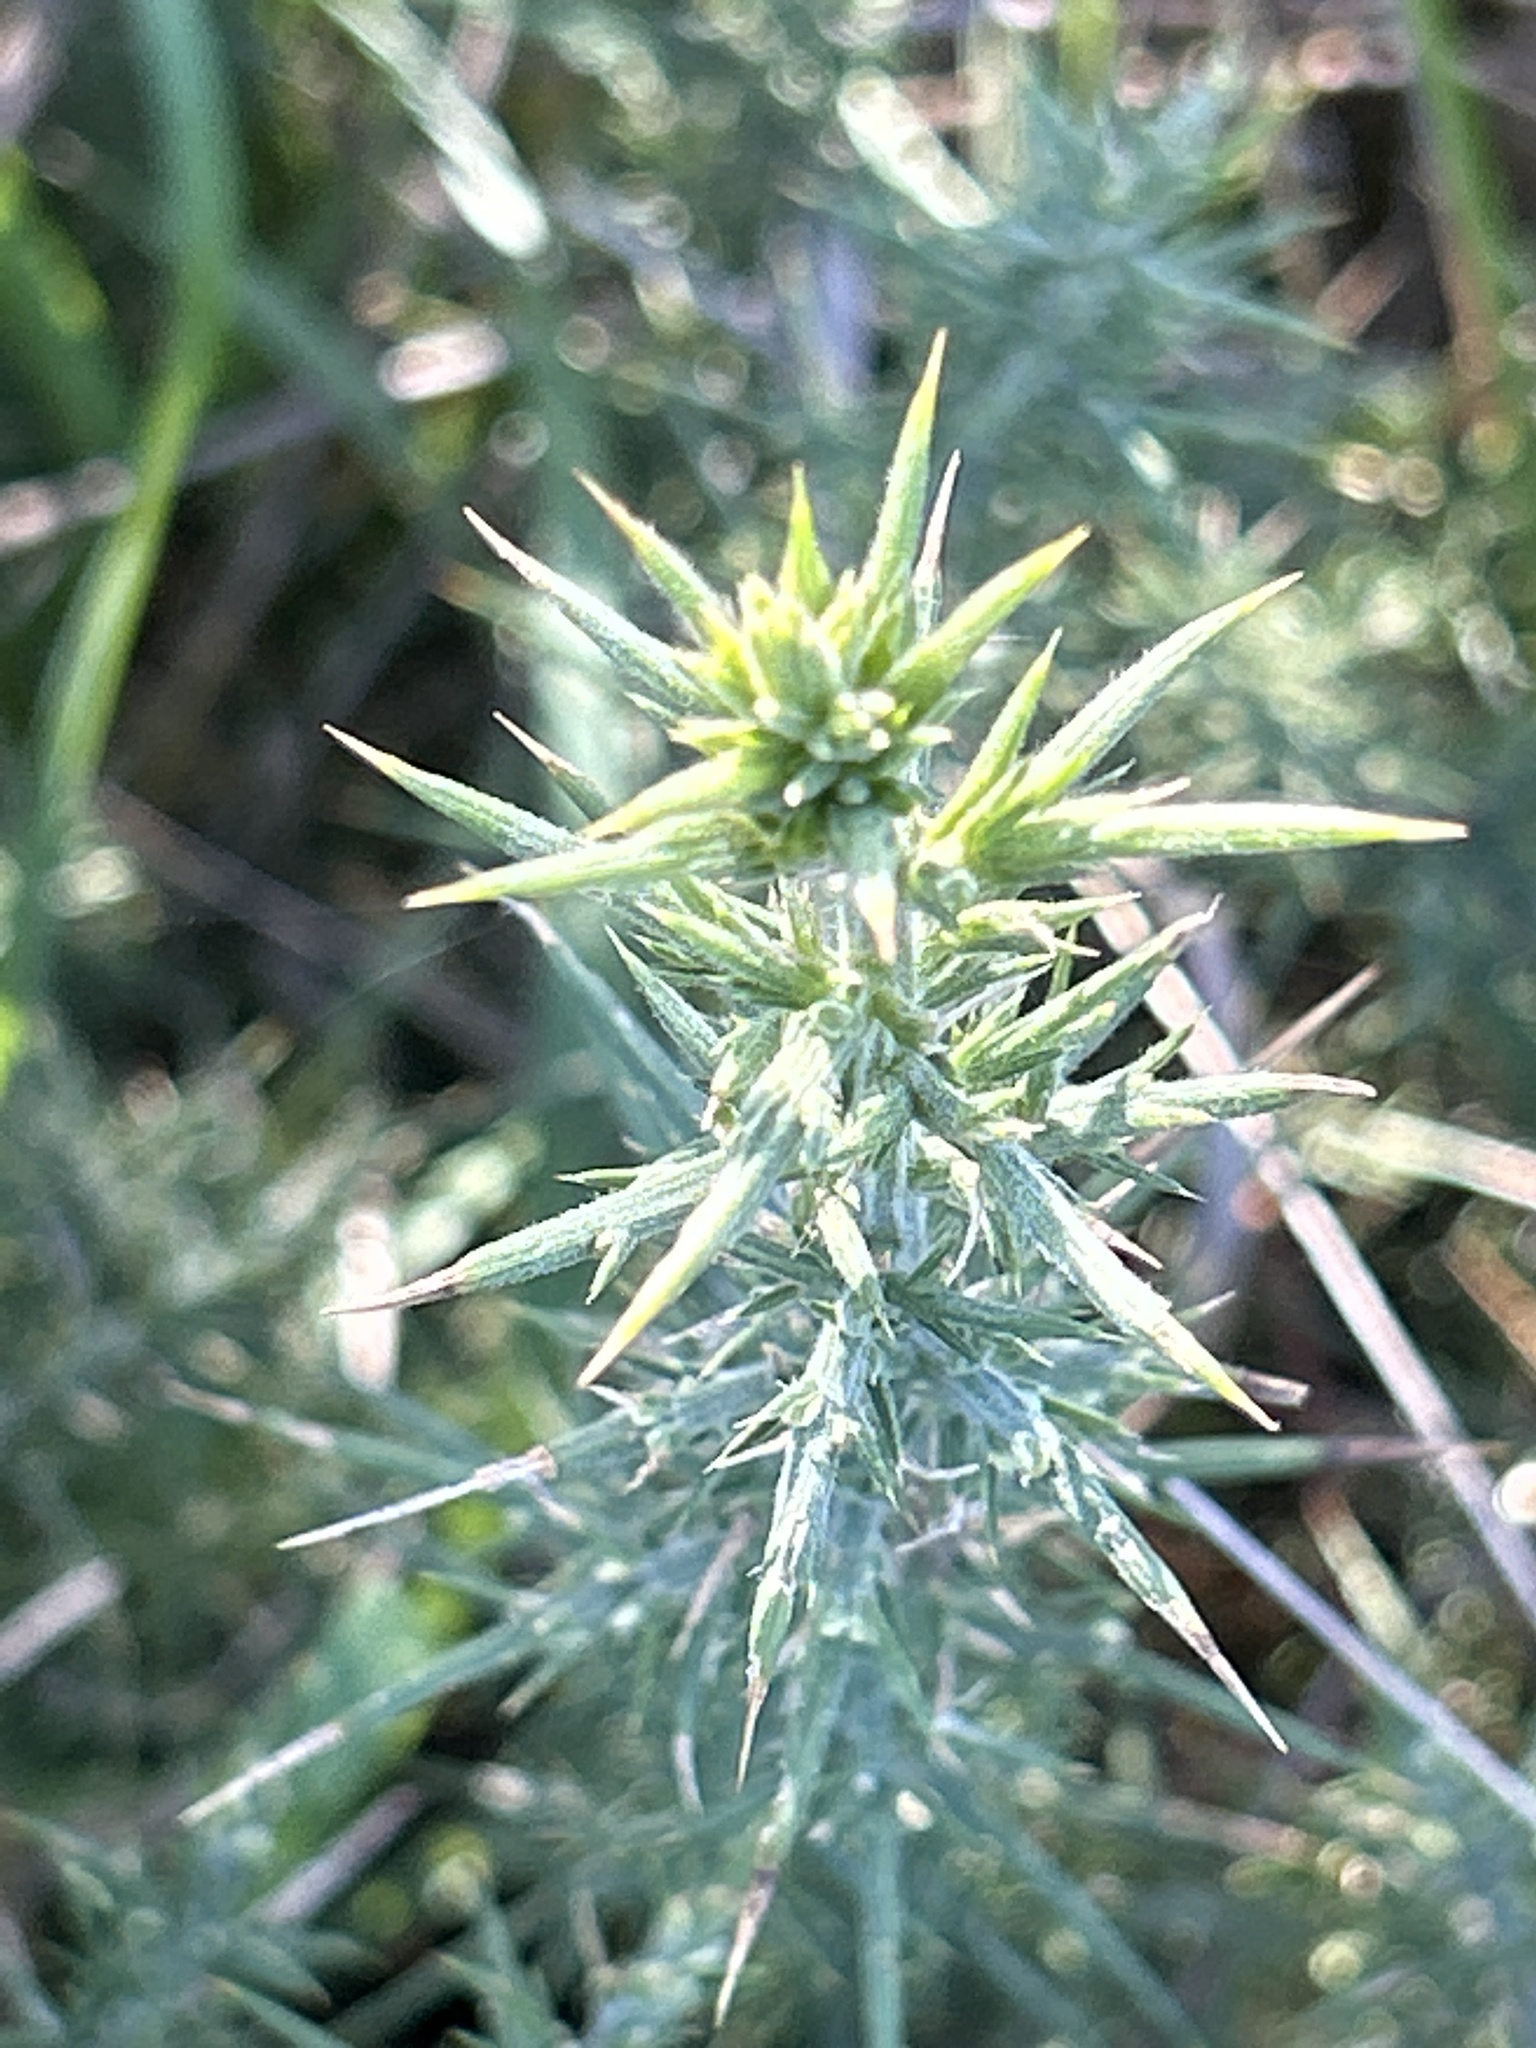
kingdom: Plantae
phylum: Tracheophyta
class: Magnoliopsida
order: Fabales
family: Fabaceae
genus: Ulex
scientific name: Ulex europaeus
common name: Common gorse
